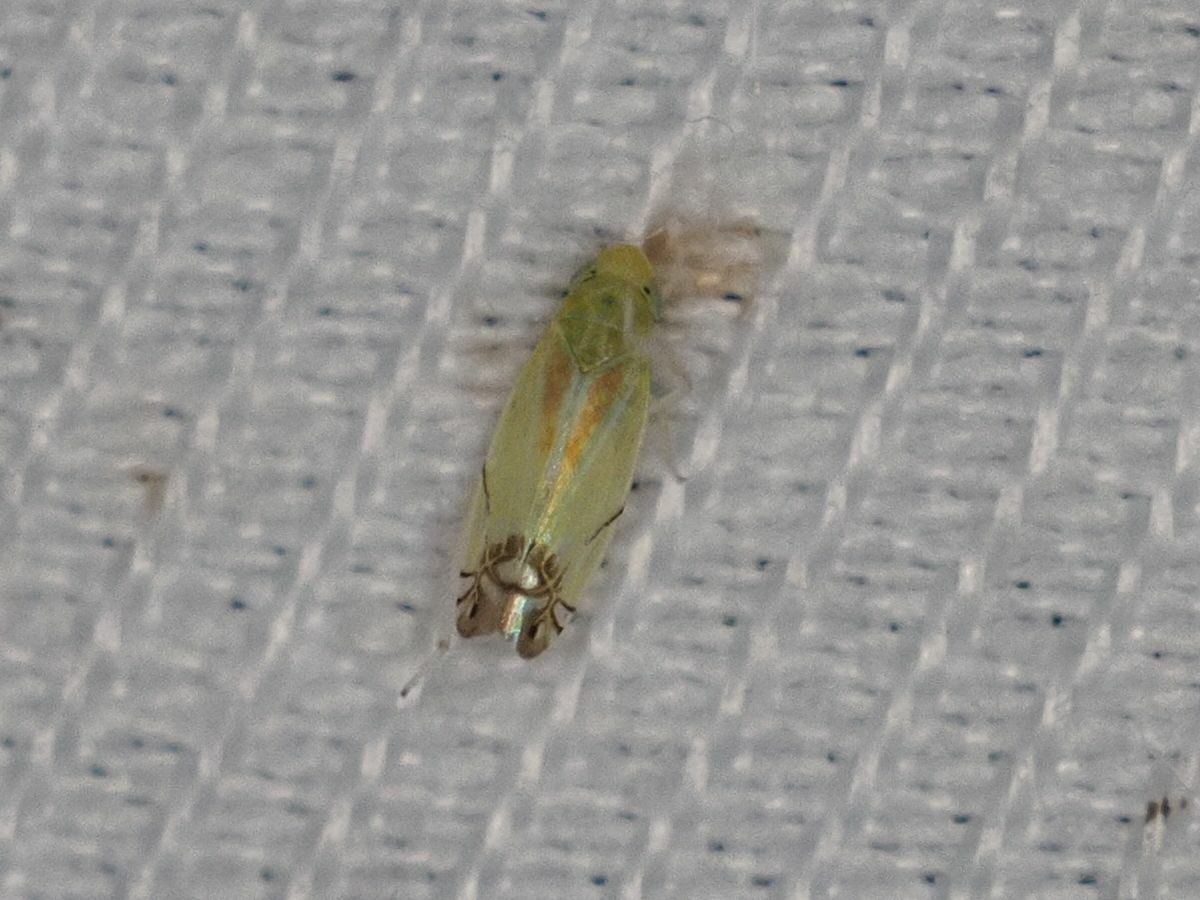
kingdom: Animalia
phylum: Arthropoda
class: Insecta
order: Hemiptera
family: Cicadellidae
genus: Zyginella
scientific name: Zyginella pulchra
